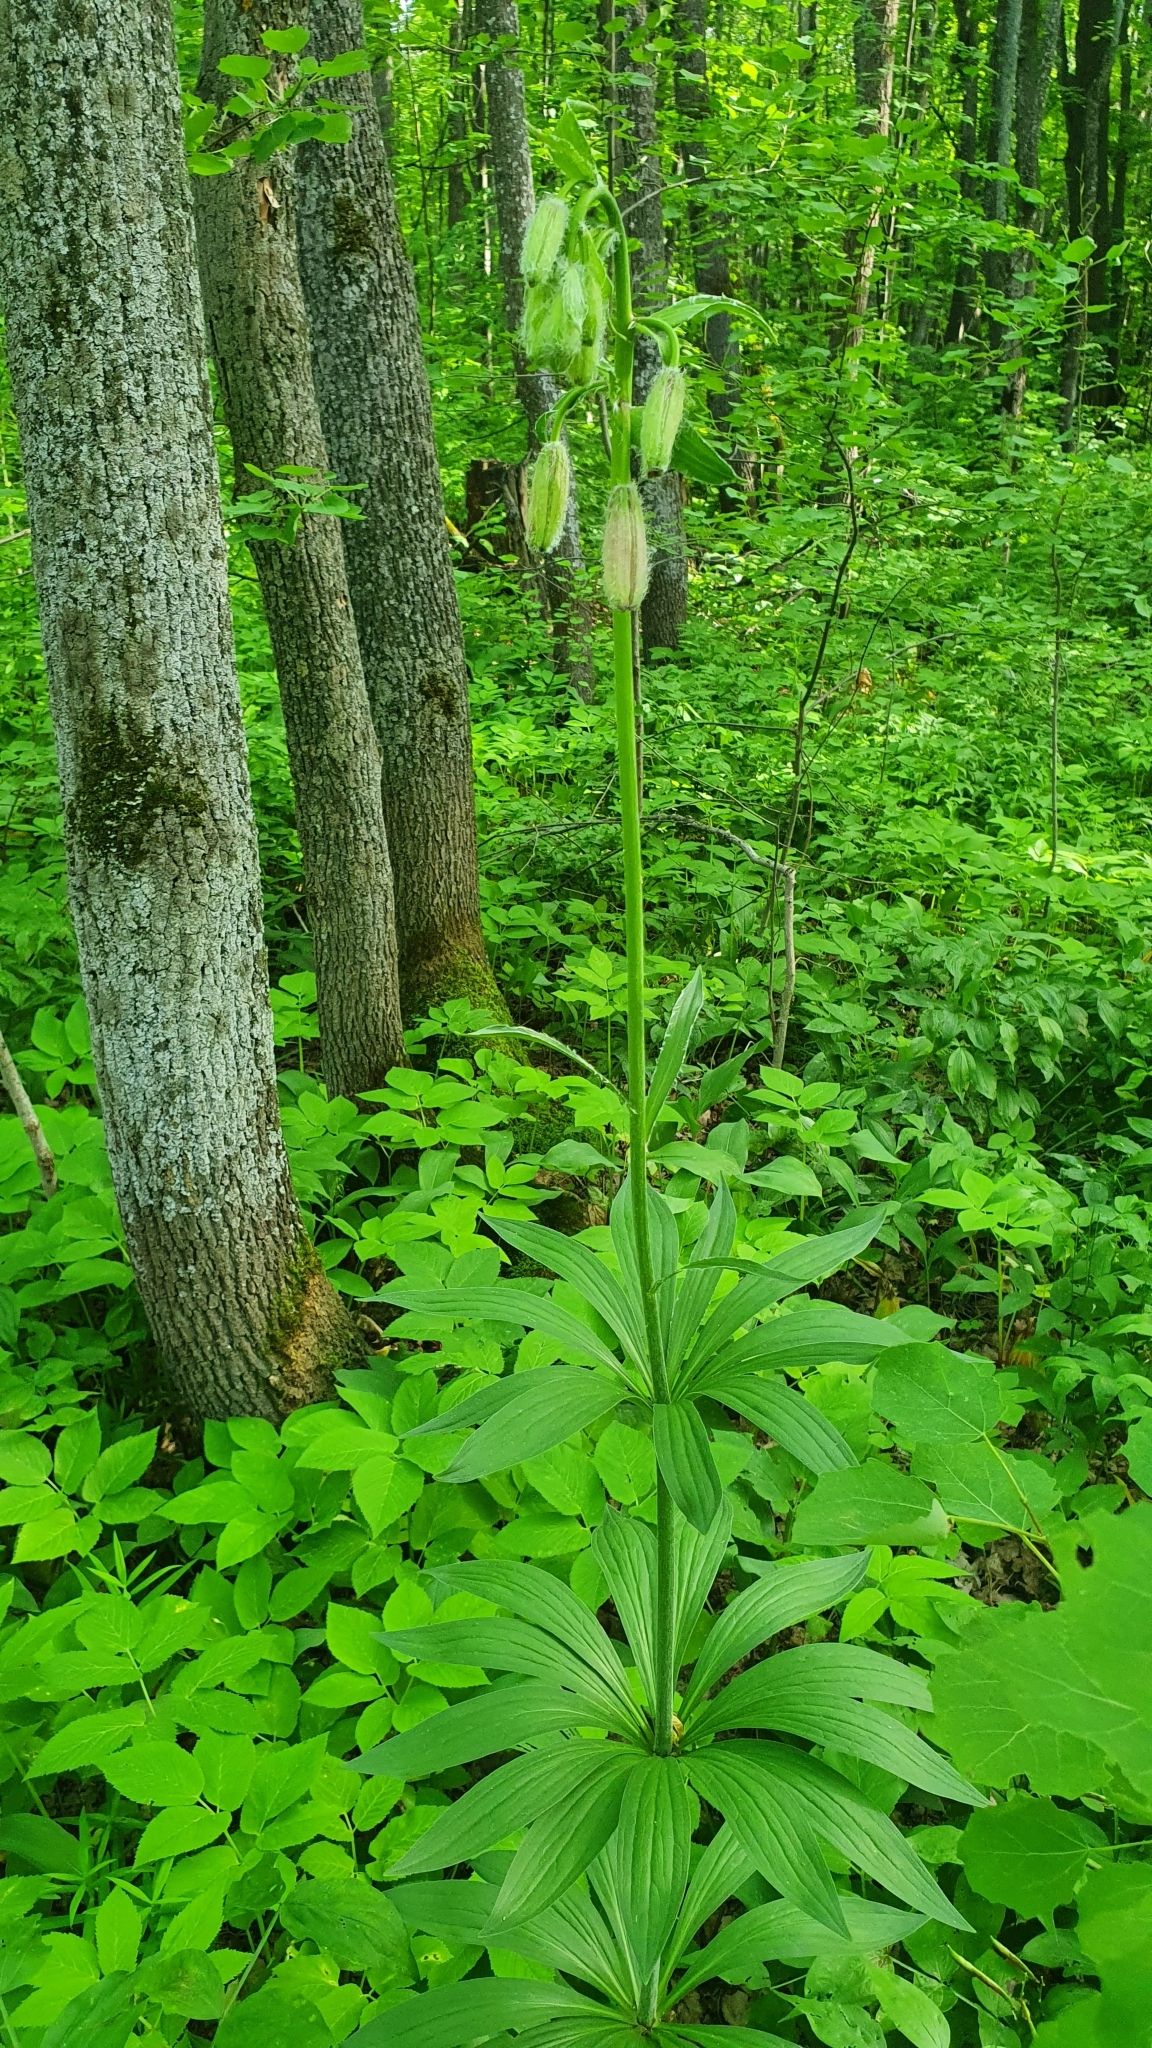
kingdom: Plantae
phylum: Tracheophyta
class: Liliopsida
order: Liliales
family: Liliaceae
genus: Lilium
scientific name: Lilium martagon
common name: Martagon lily
